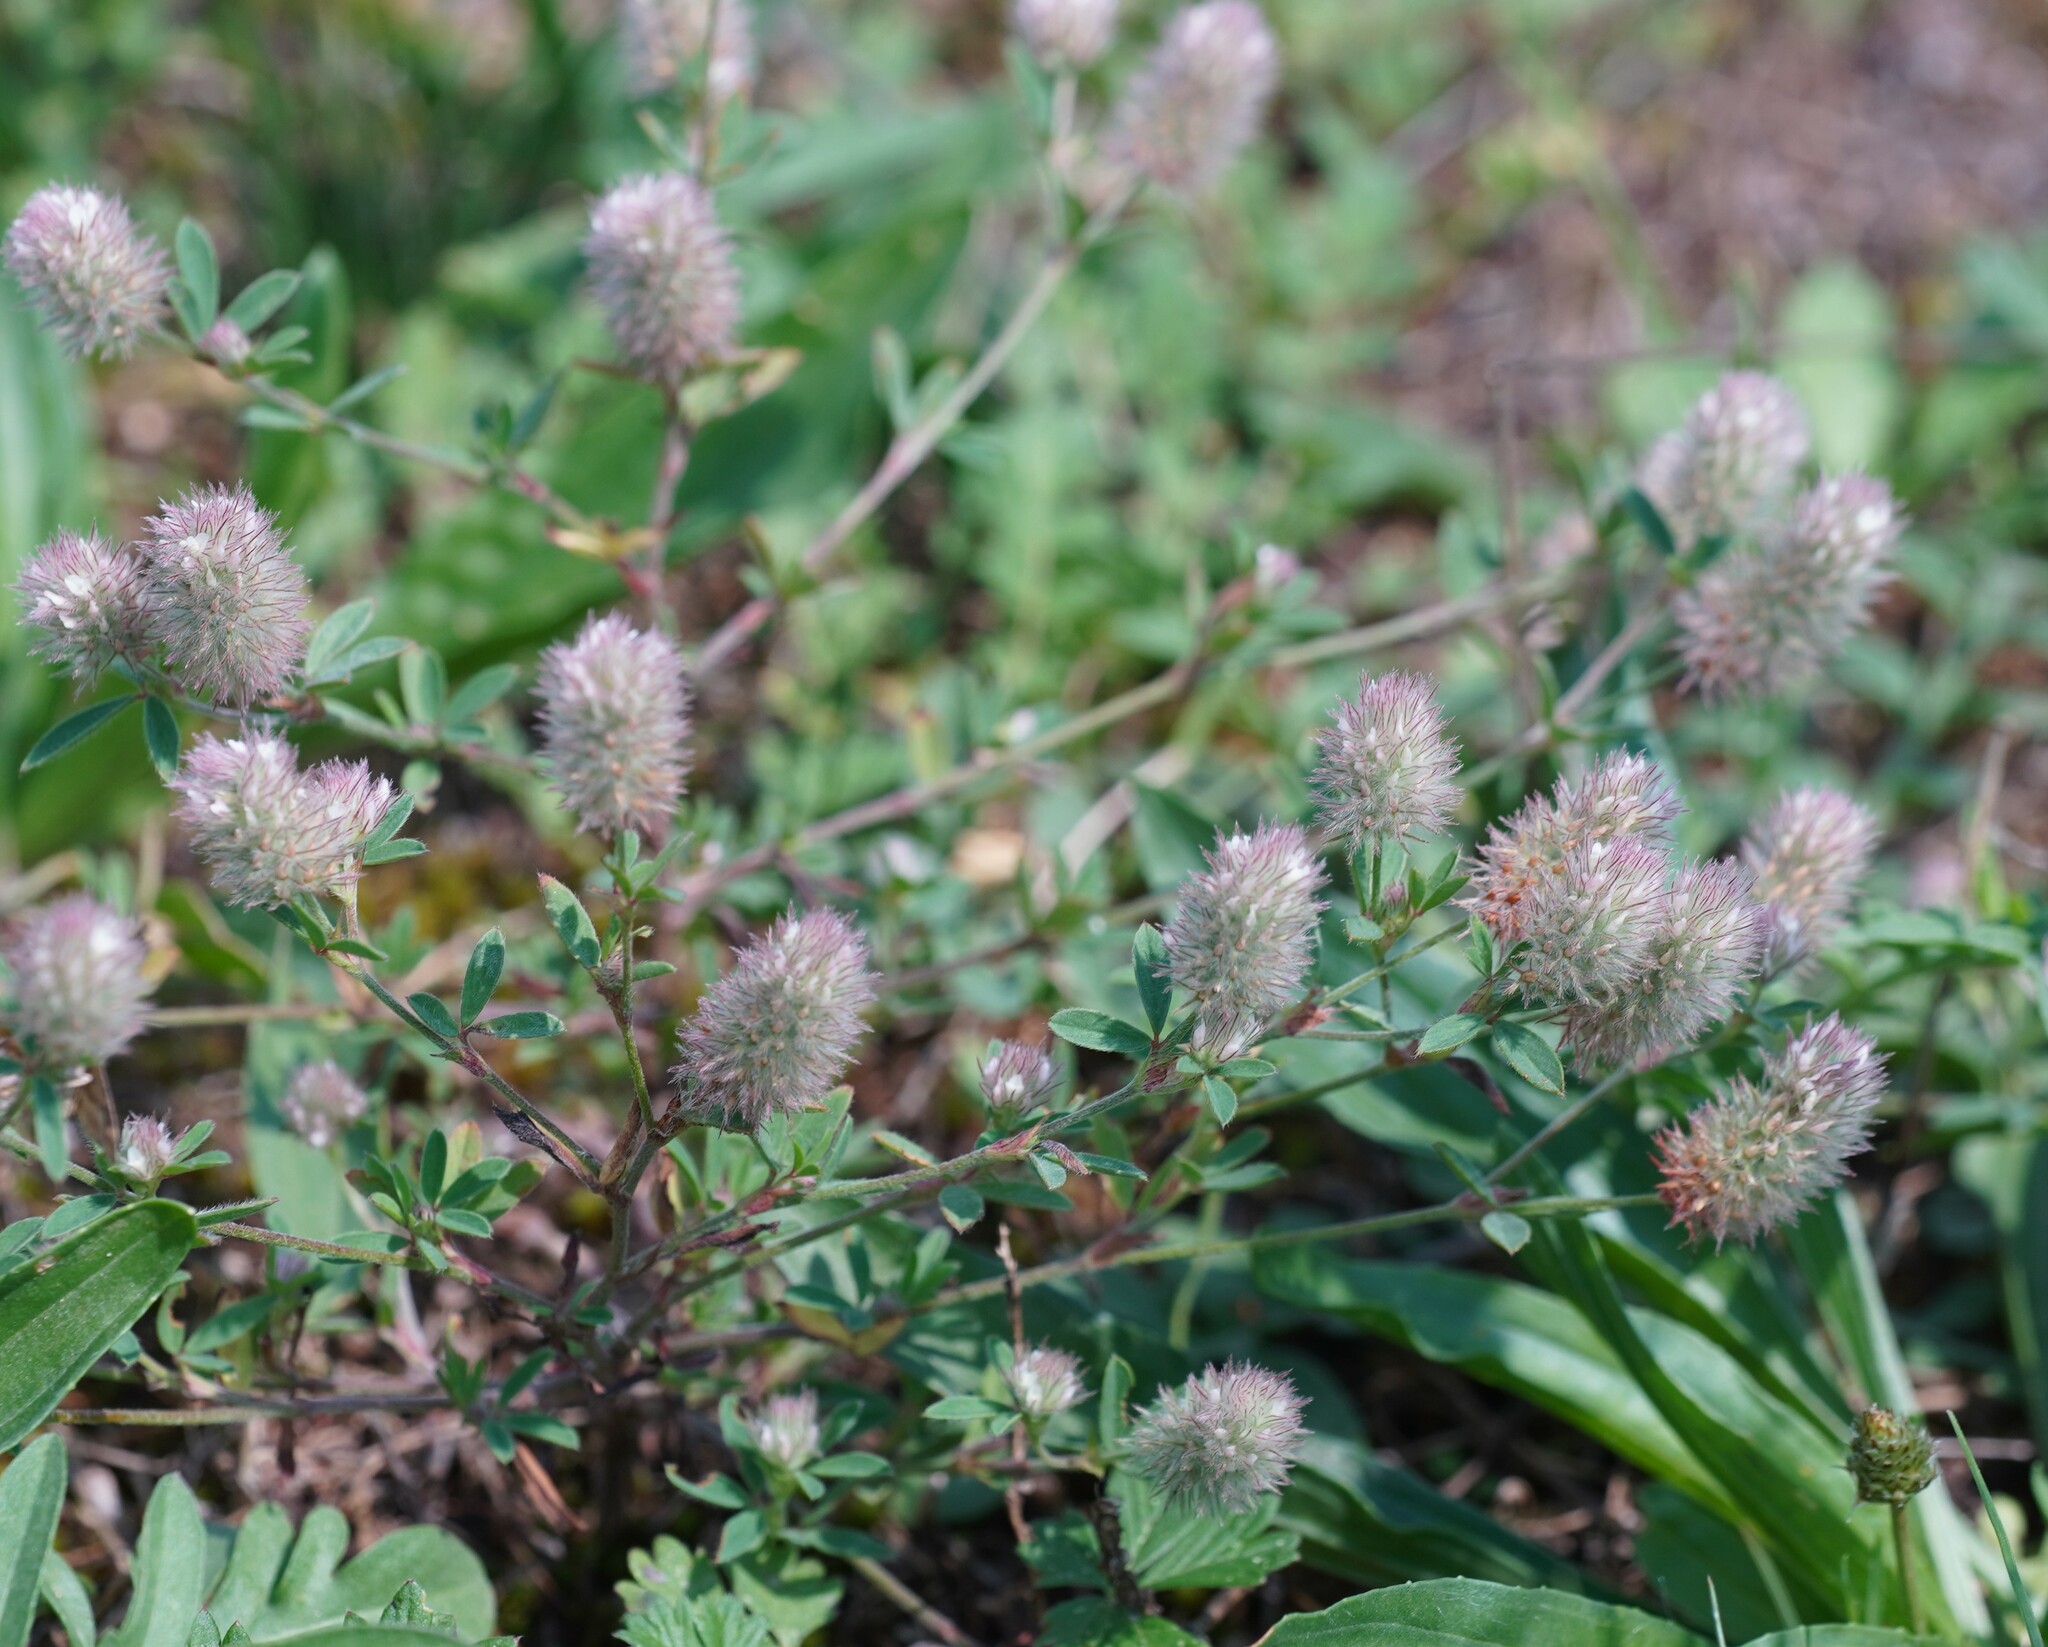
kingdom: Plantae
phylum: Tracheophyta
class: Magnoliopsida
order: Fabales
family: Fabaceae
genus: Trifolium
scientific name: Trifolium arvense
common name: Hare's-foot clover
